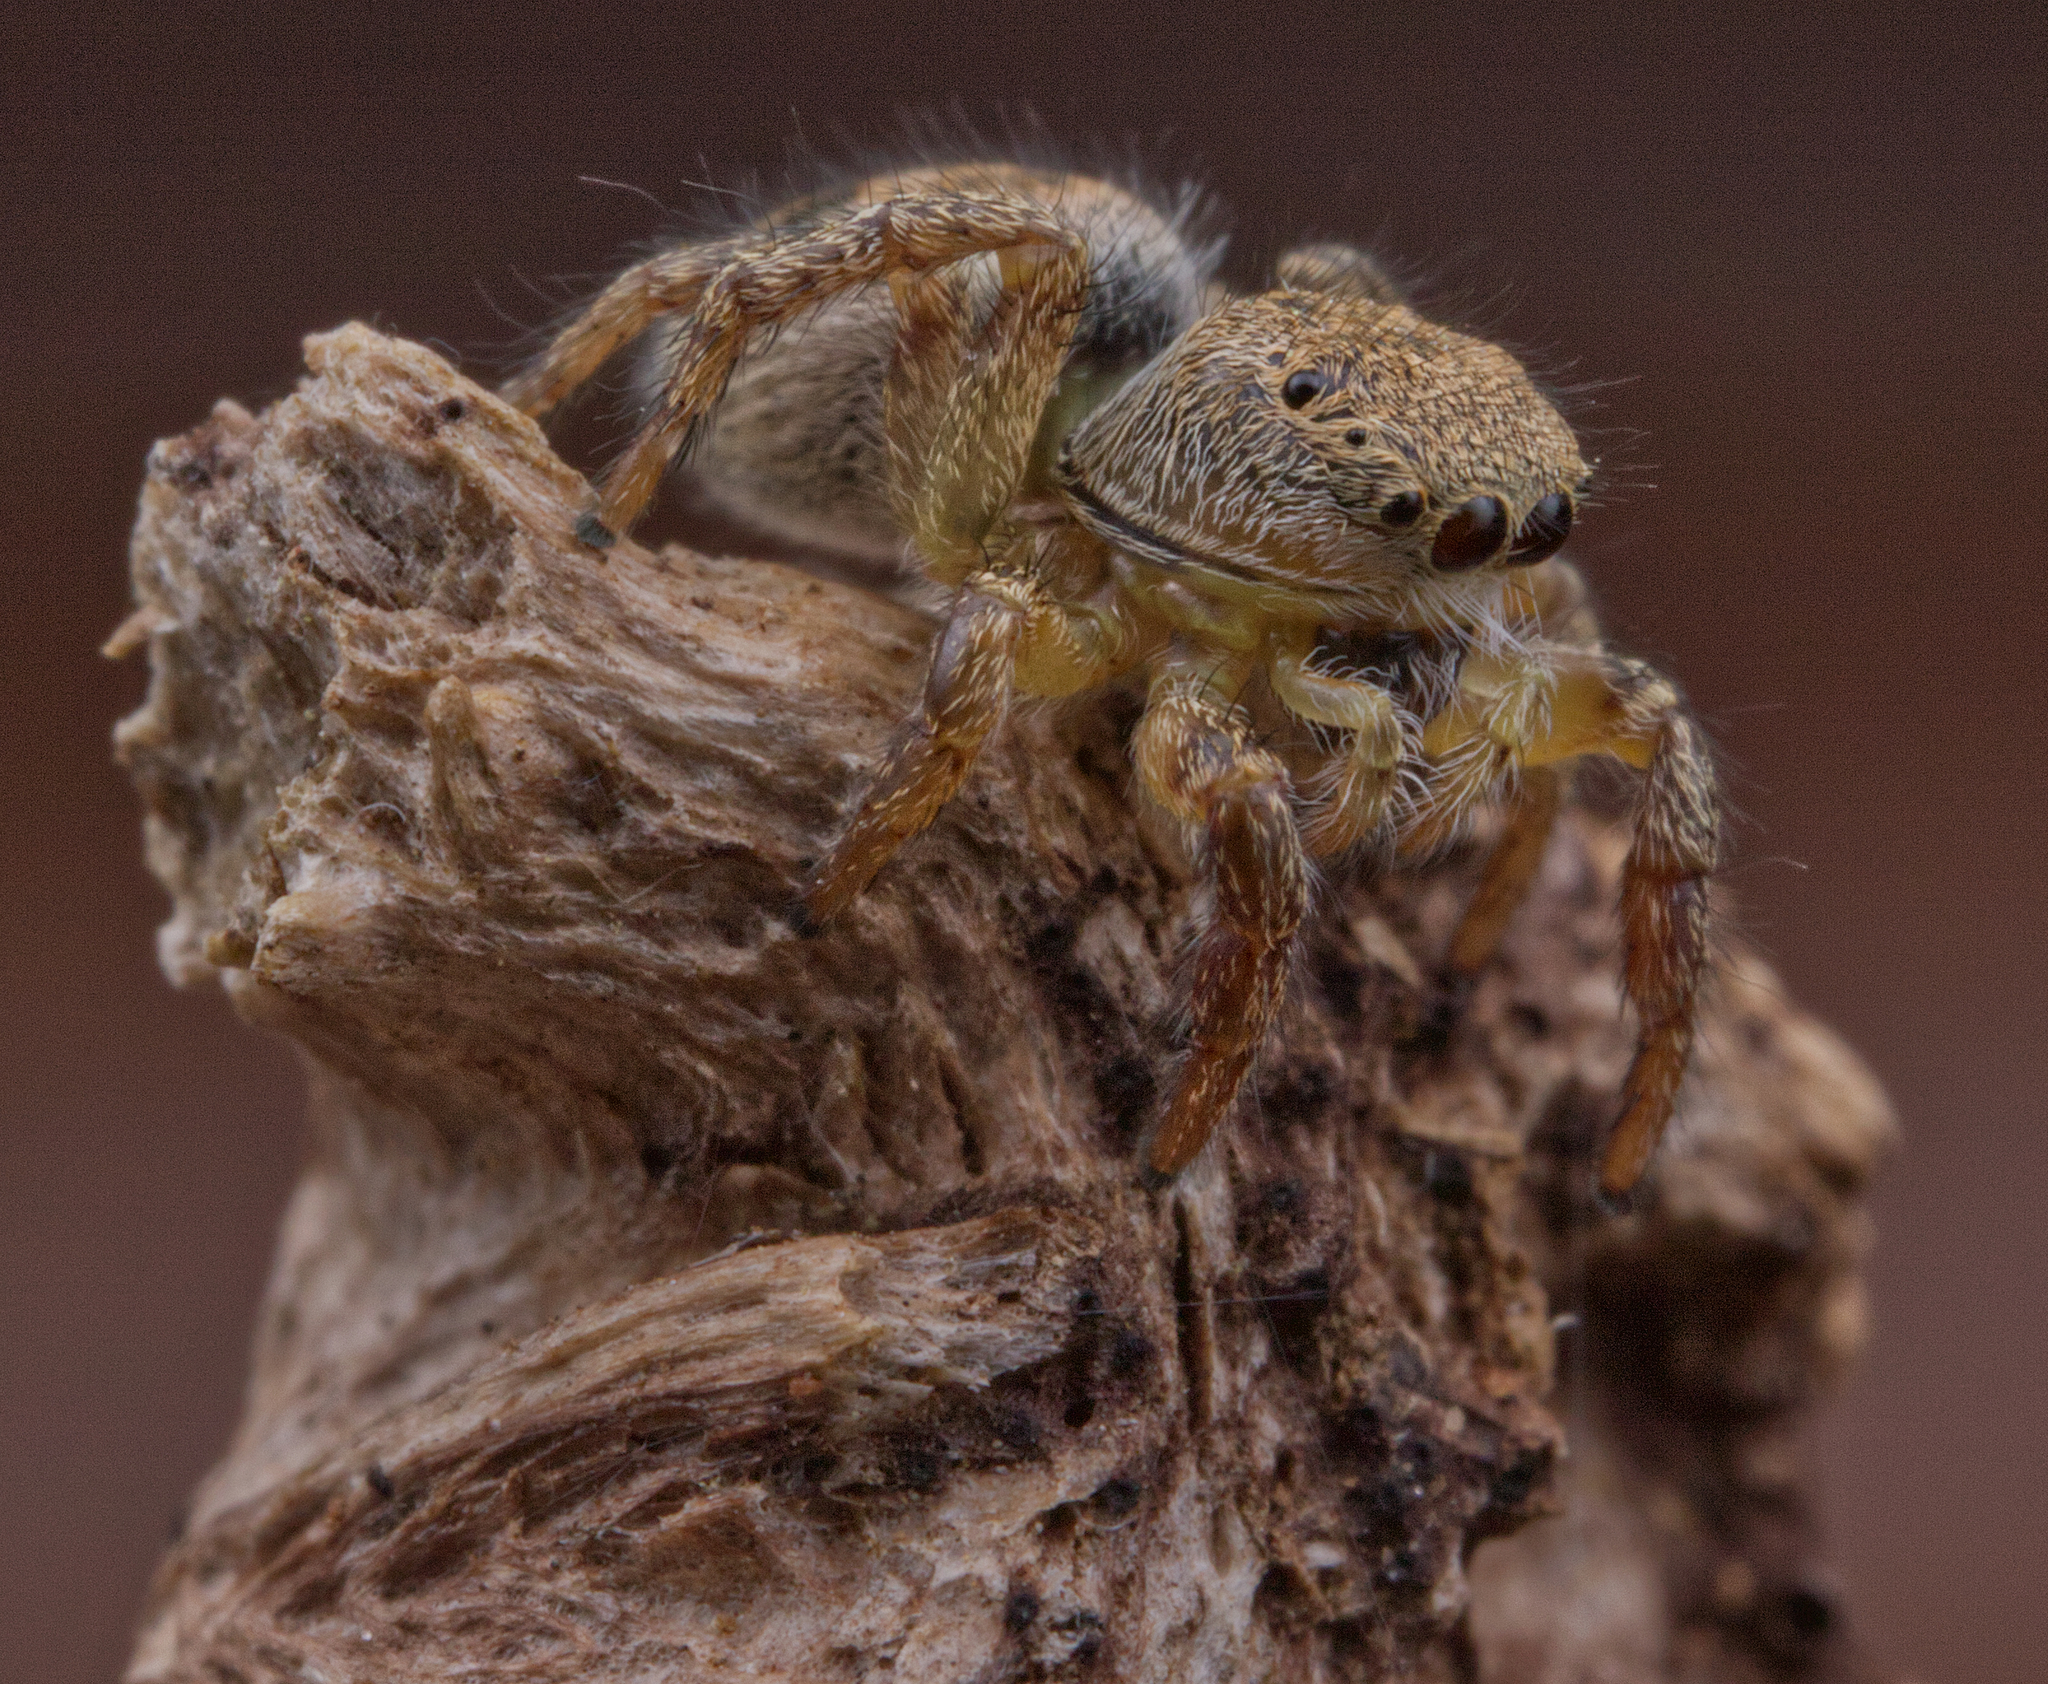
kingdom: Animalia
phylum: Arthropoda
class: Arachnida
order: Araneae
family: Salticidae
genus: Habronattus
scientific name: Habronattus decorus
